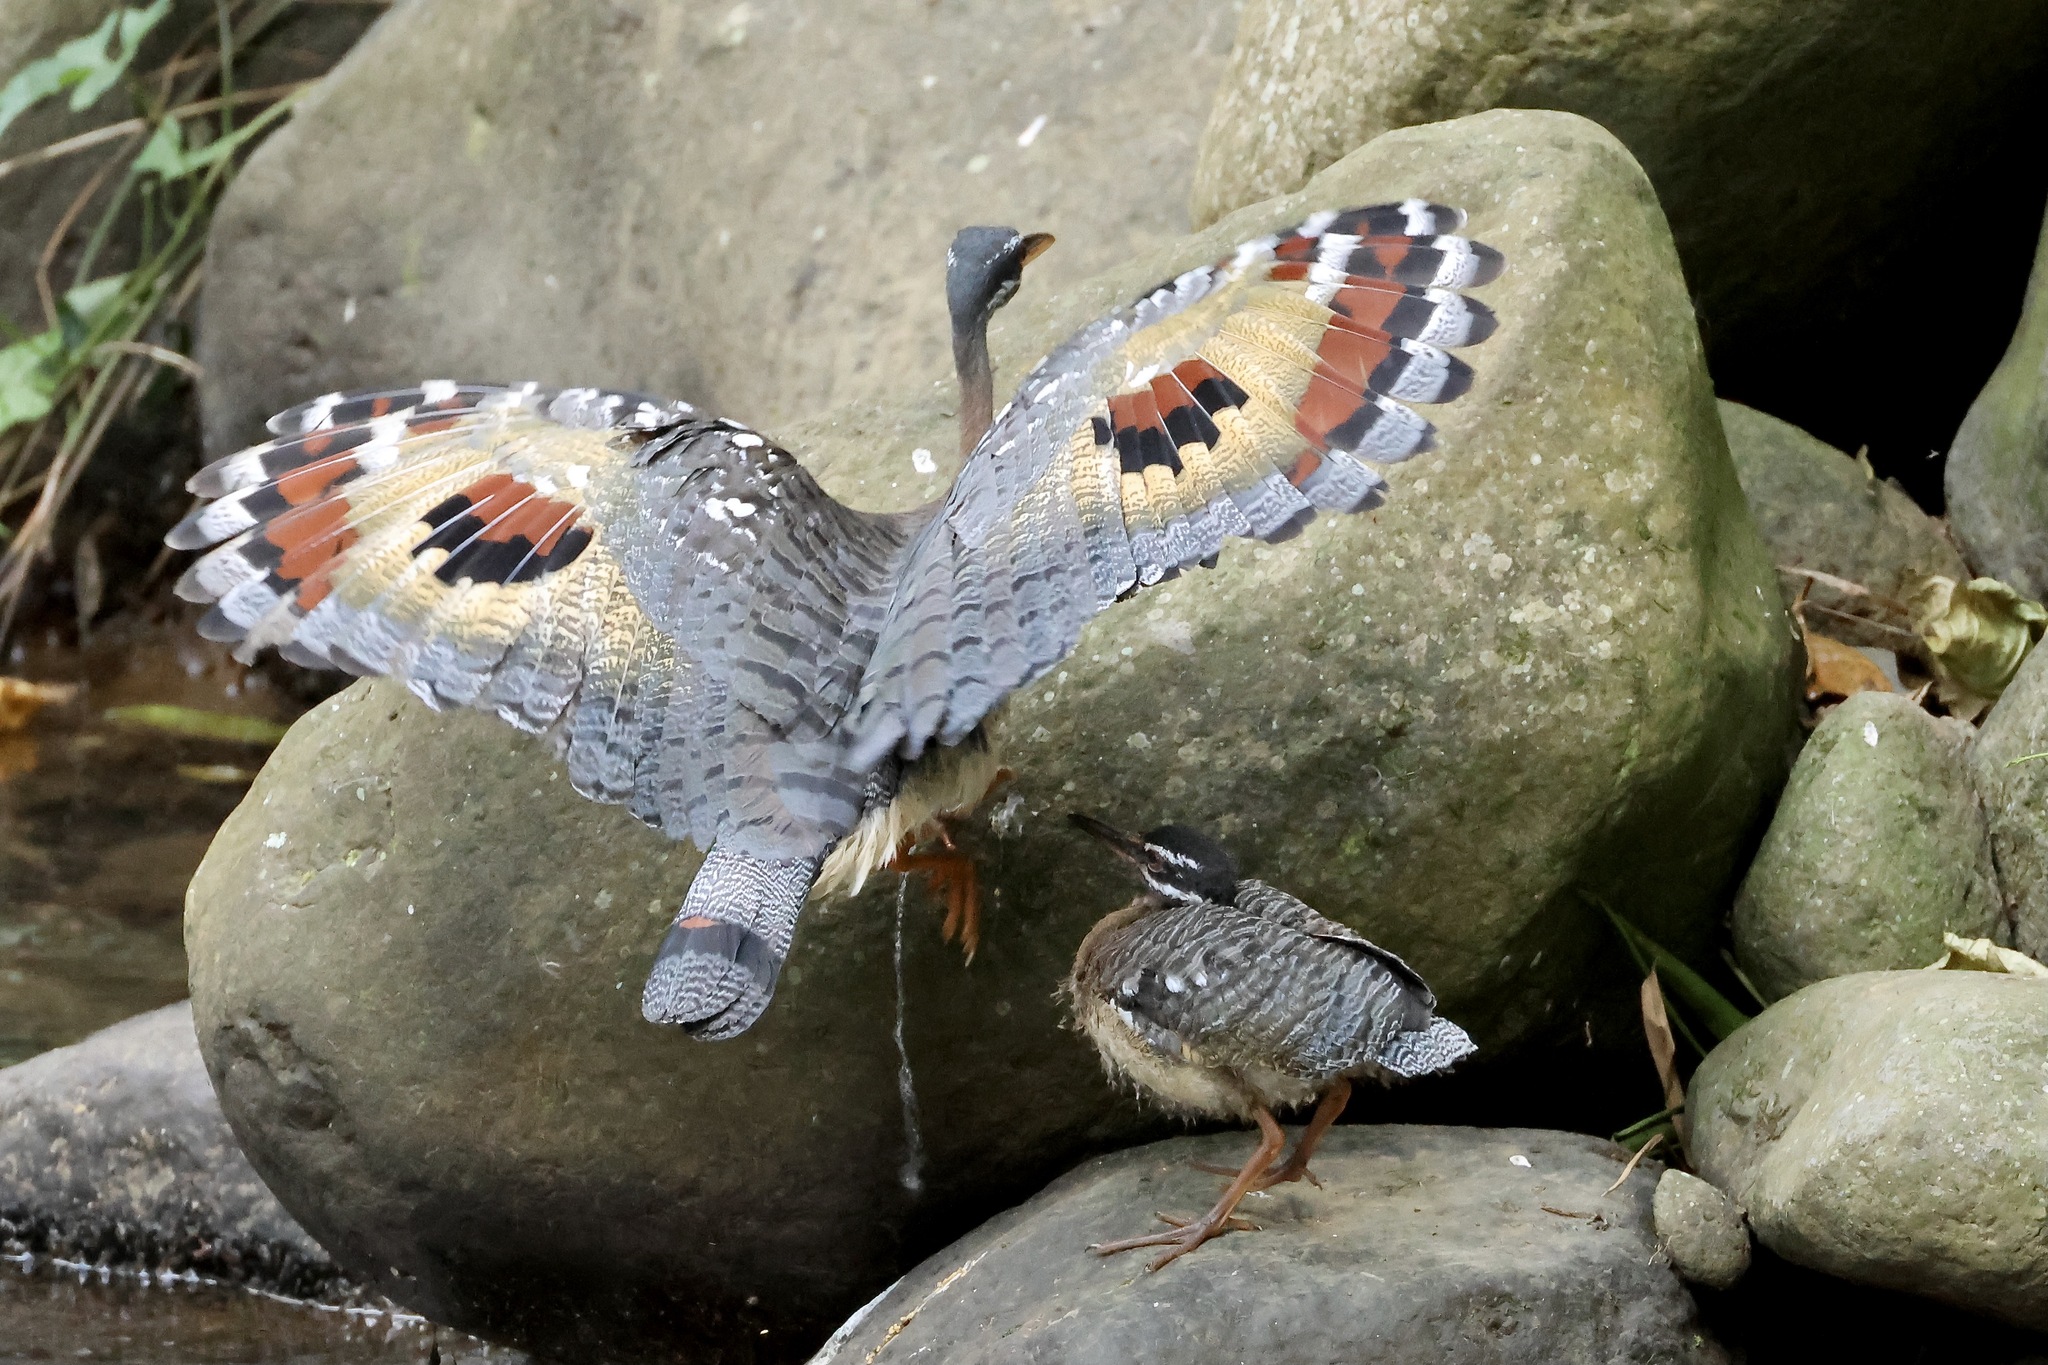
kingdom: Animalia
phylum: Chordata
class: Aves
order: Eurypygiformes
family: Eurypygidae
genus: Eurypyga
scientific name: Eurypyga helias
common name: Sunbittern
